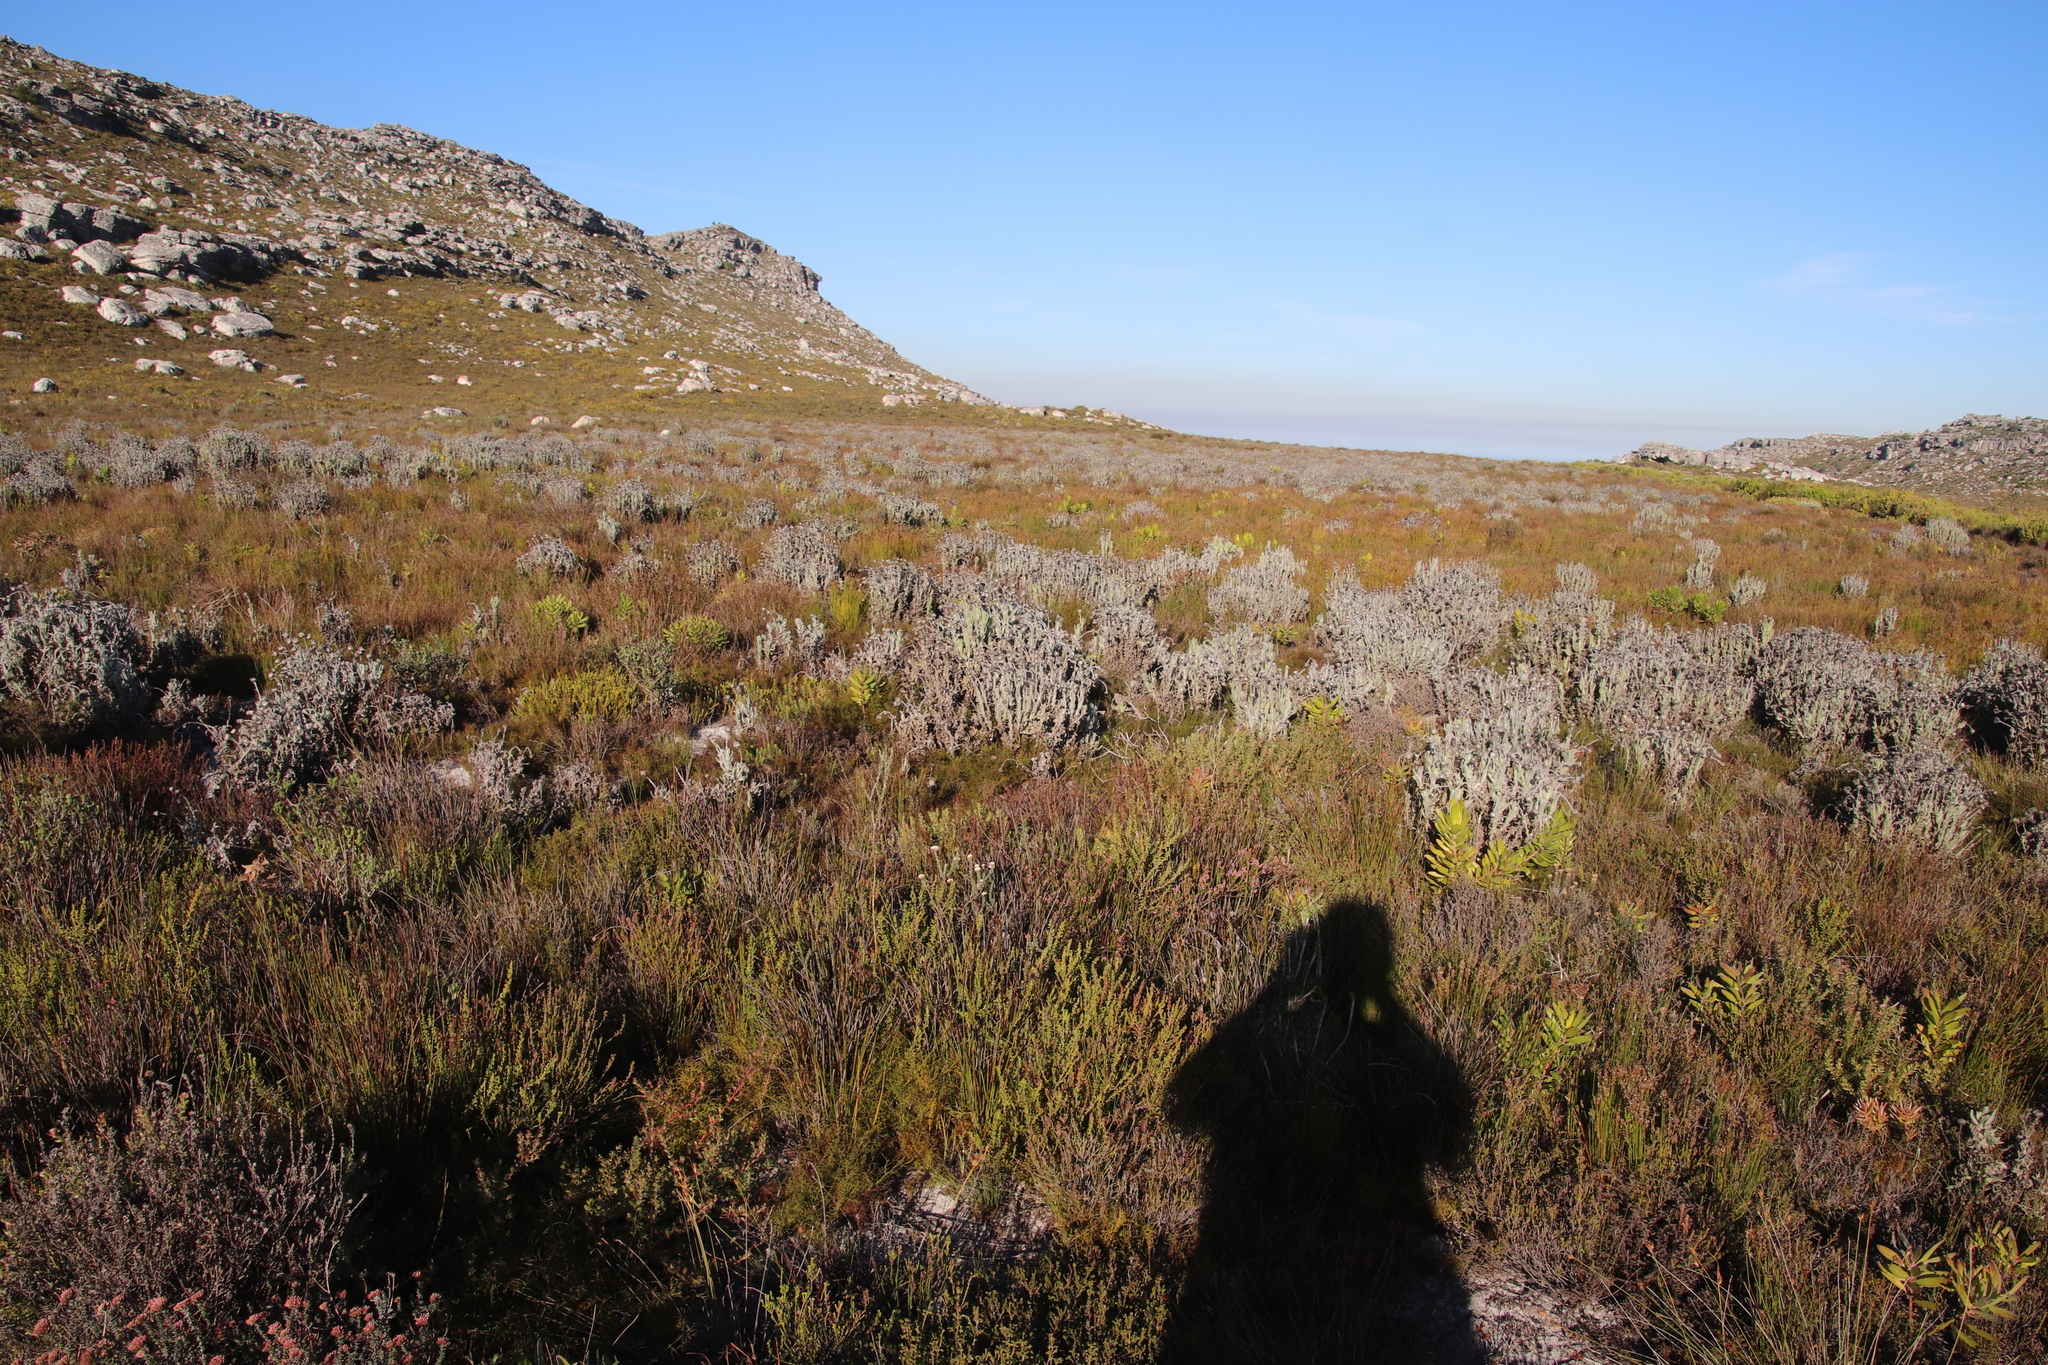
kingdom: Plantae
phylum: Tracheophyta
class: Magnoliopsida
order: Asterales
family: Asteraceae
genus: Syncarpha
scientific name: Syncarpha vestita
